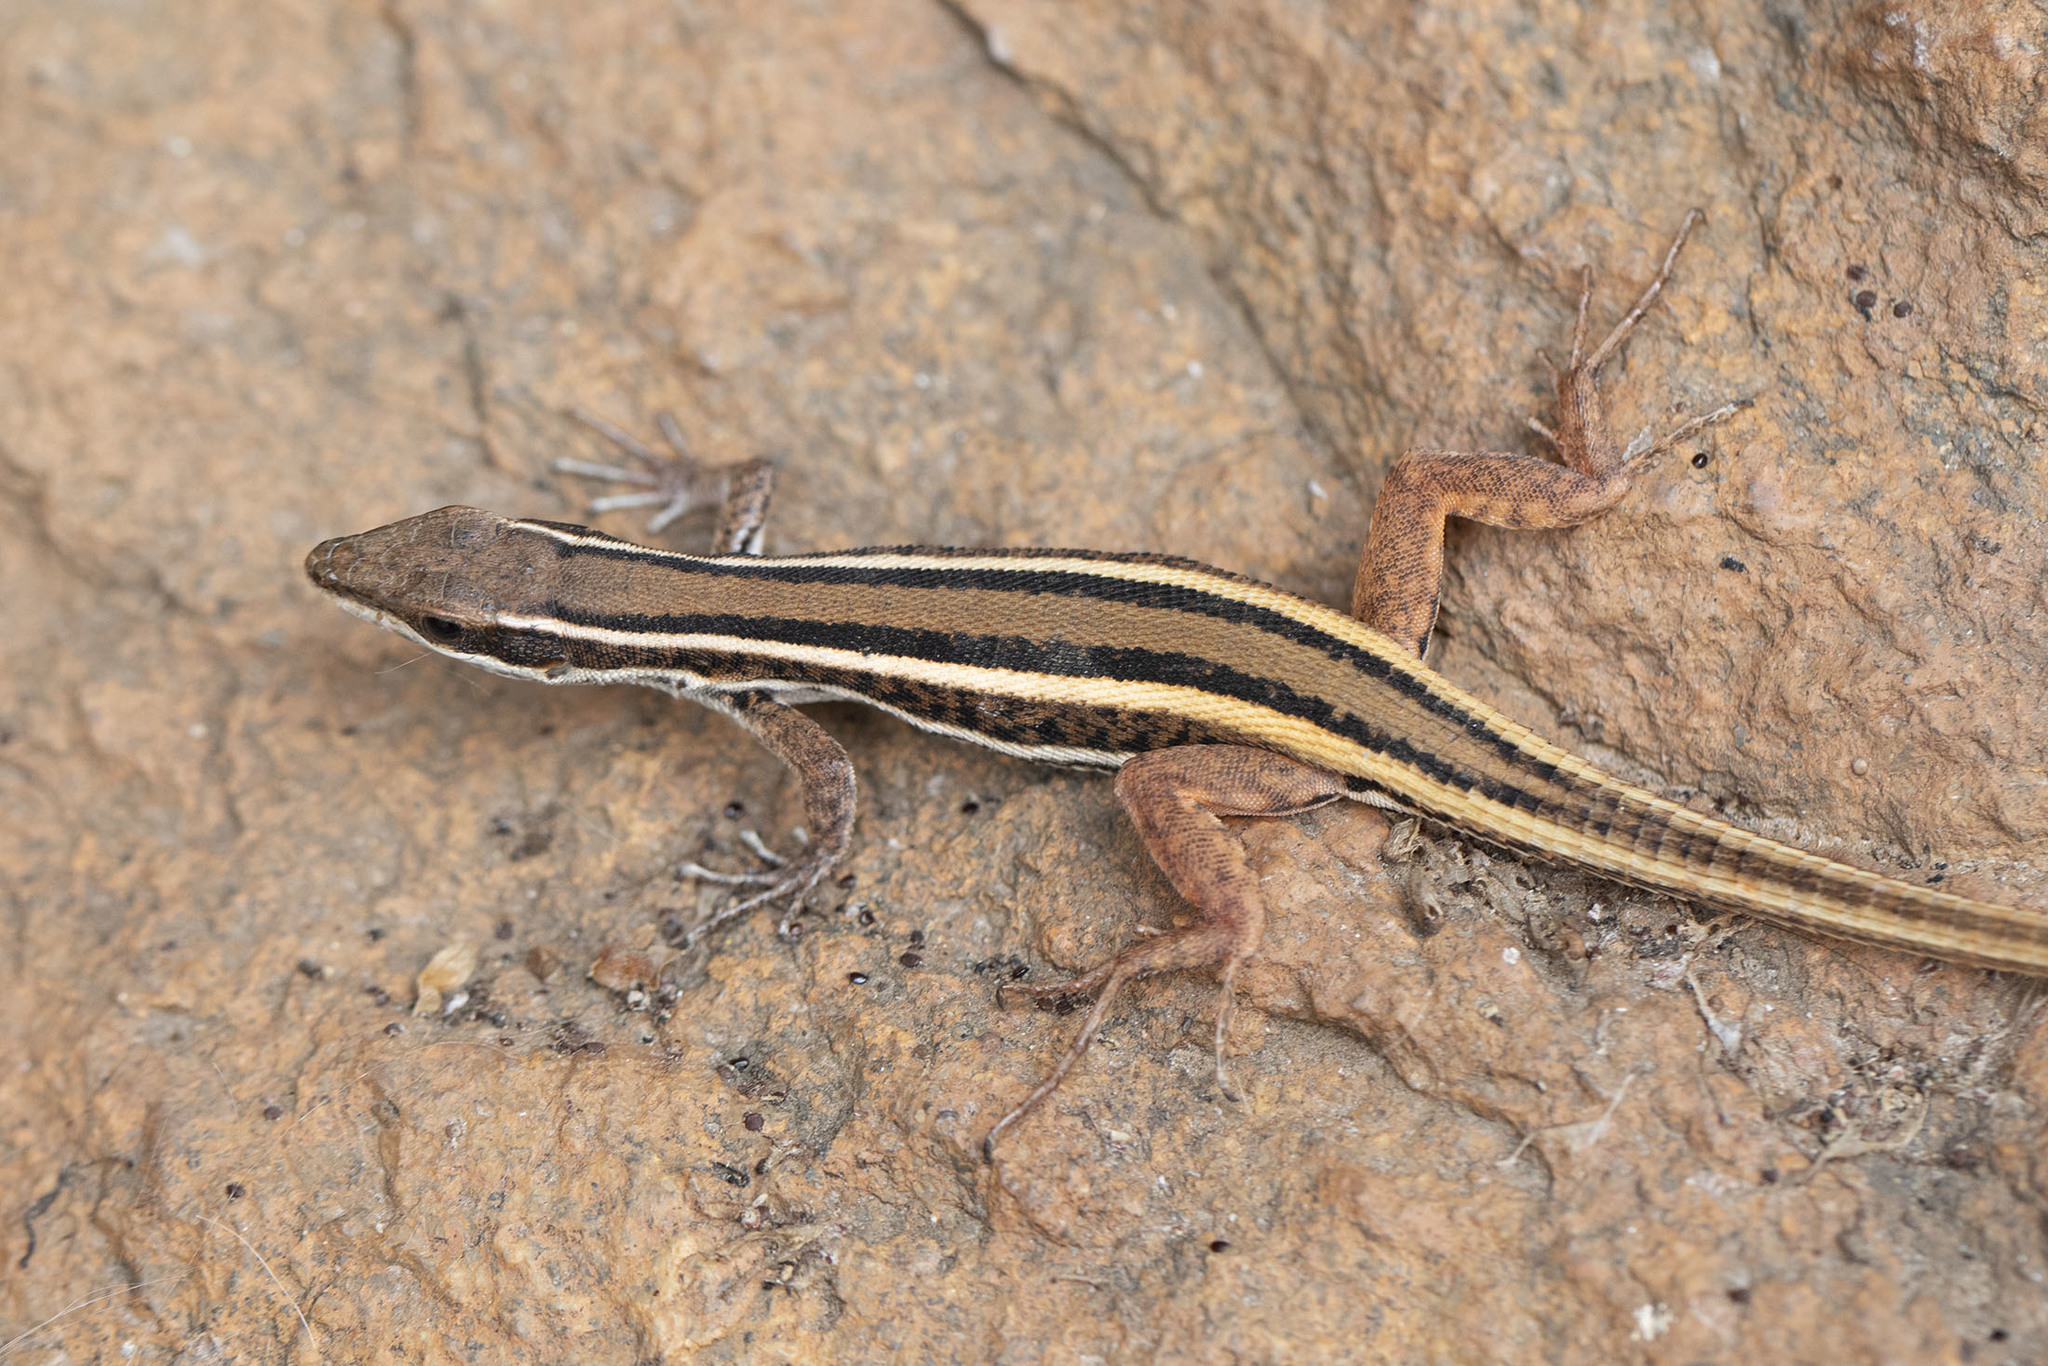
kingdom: Animalia
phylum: Chordata
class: Squamata
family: Lacertidae
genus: Ophisops
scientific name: Ophisops leschenaultii
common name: Leschenault's cabrita
